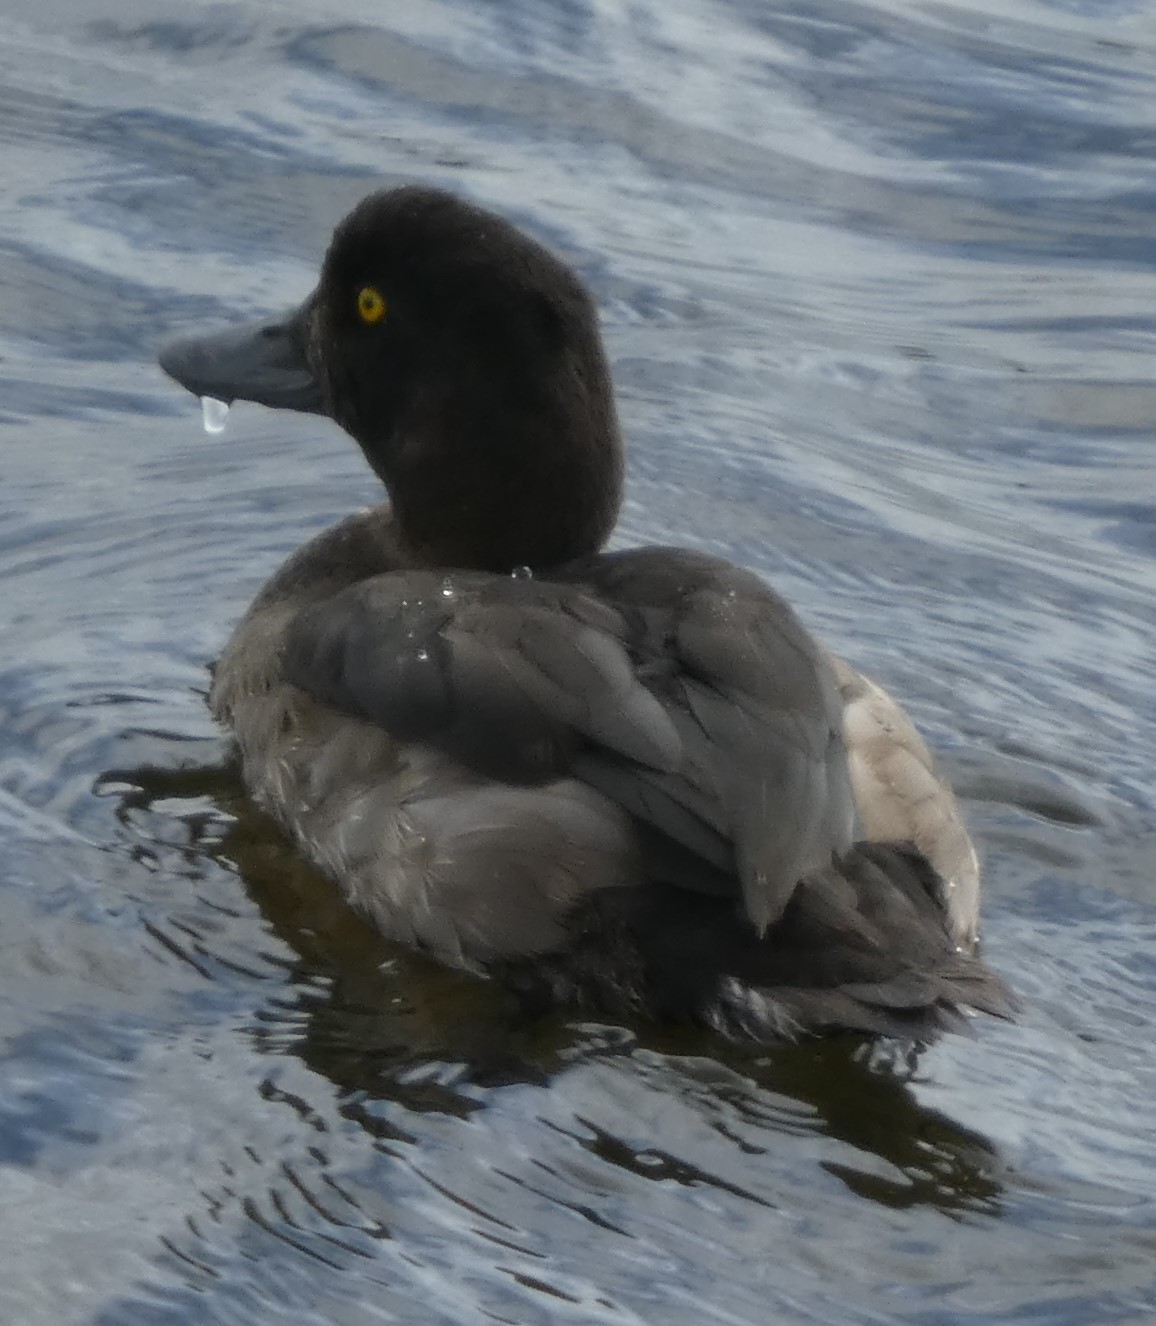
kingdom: Animalia
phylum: Chordata
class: Aves
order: Anseriformes
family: Anatidae
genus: Aythya
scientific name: Aythya fuligula
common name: Tufted duck
